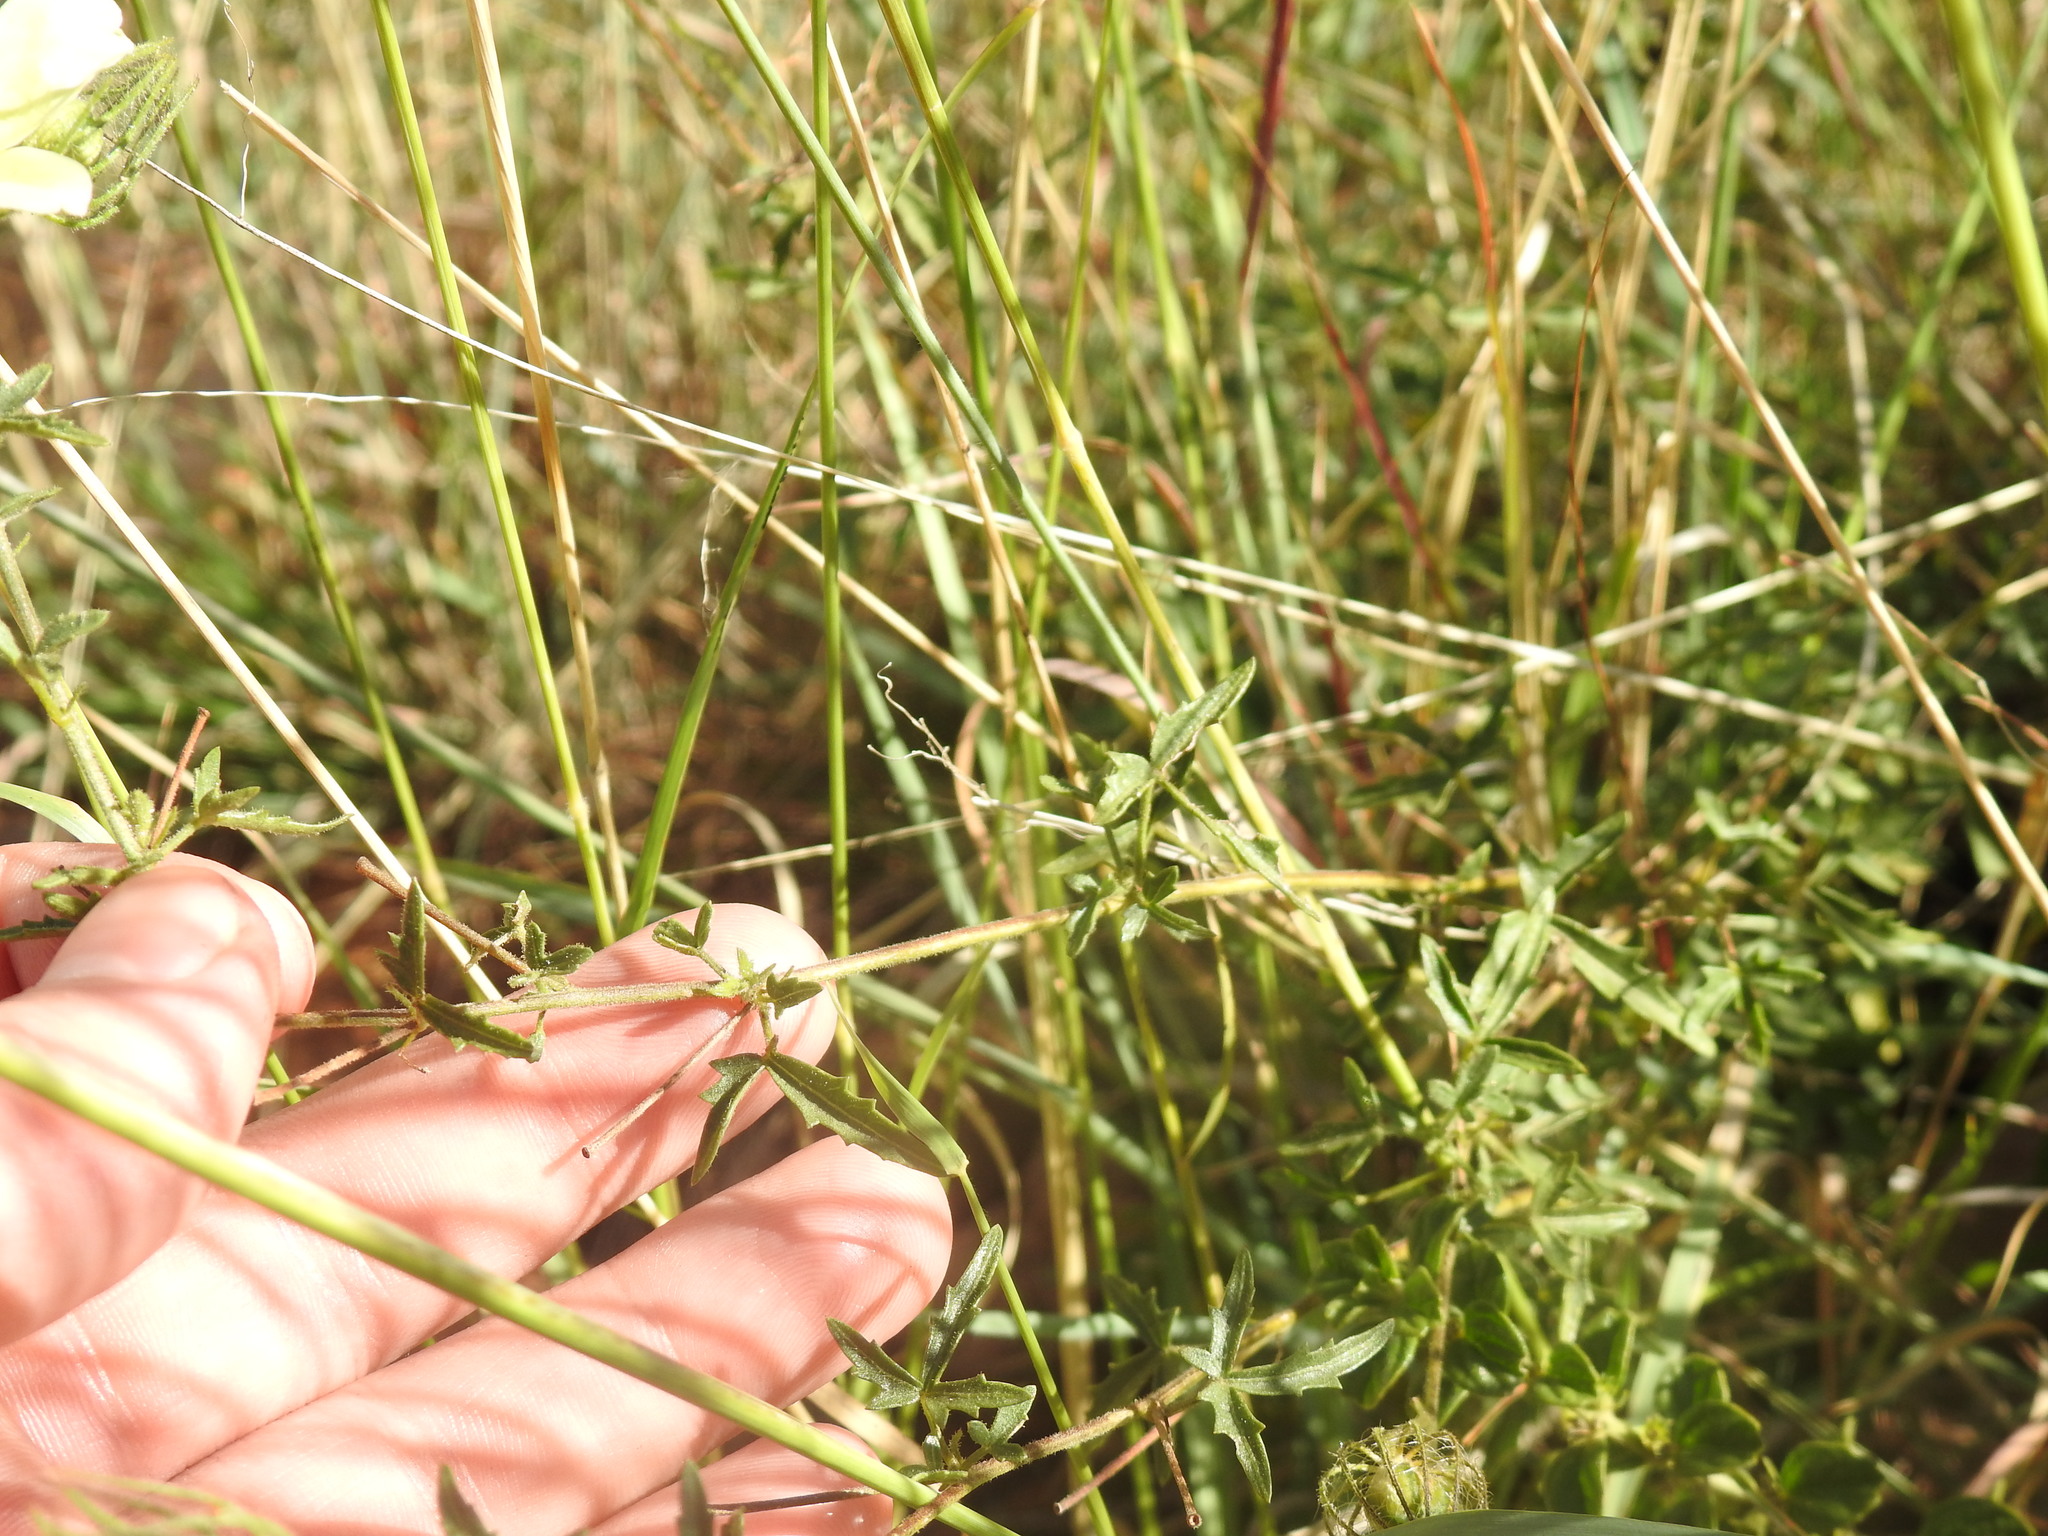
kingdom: Plantae
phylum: Tracheophyta
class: Magnoliopsida
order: Malvales
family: Malvaceae
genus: Pavonia
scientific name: Pavonia transvaalensis
